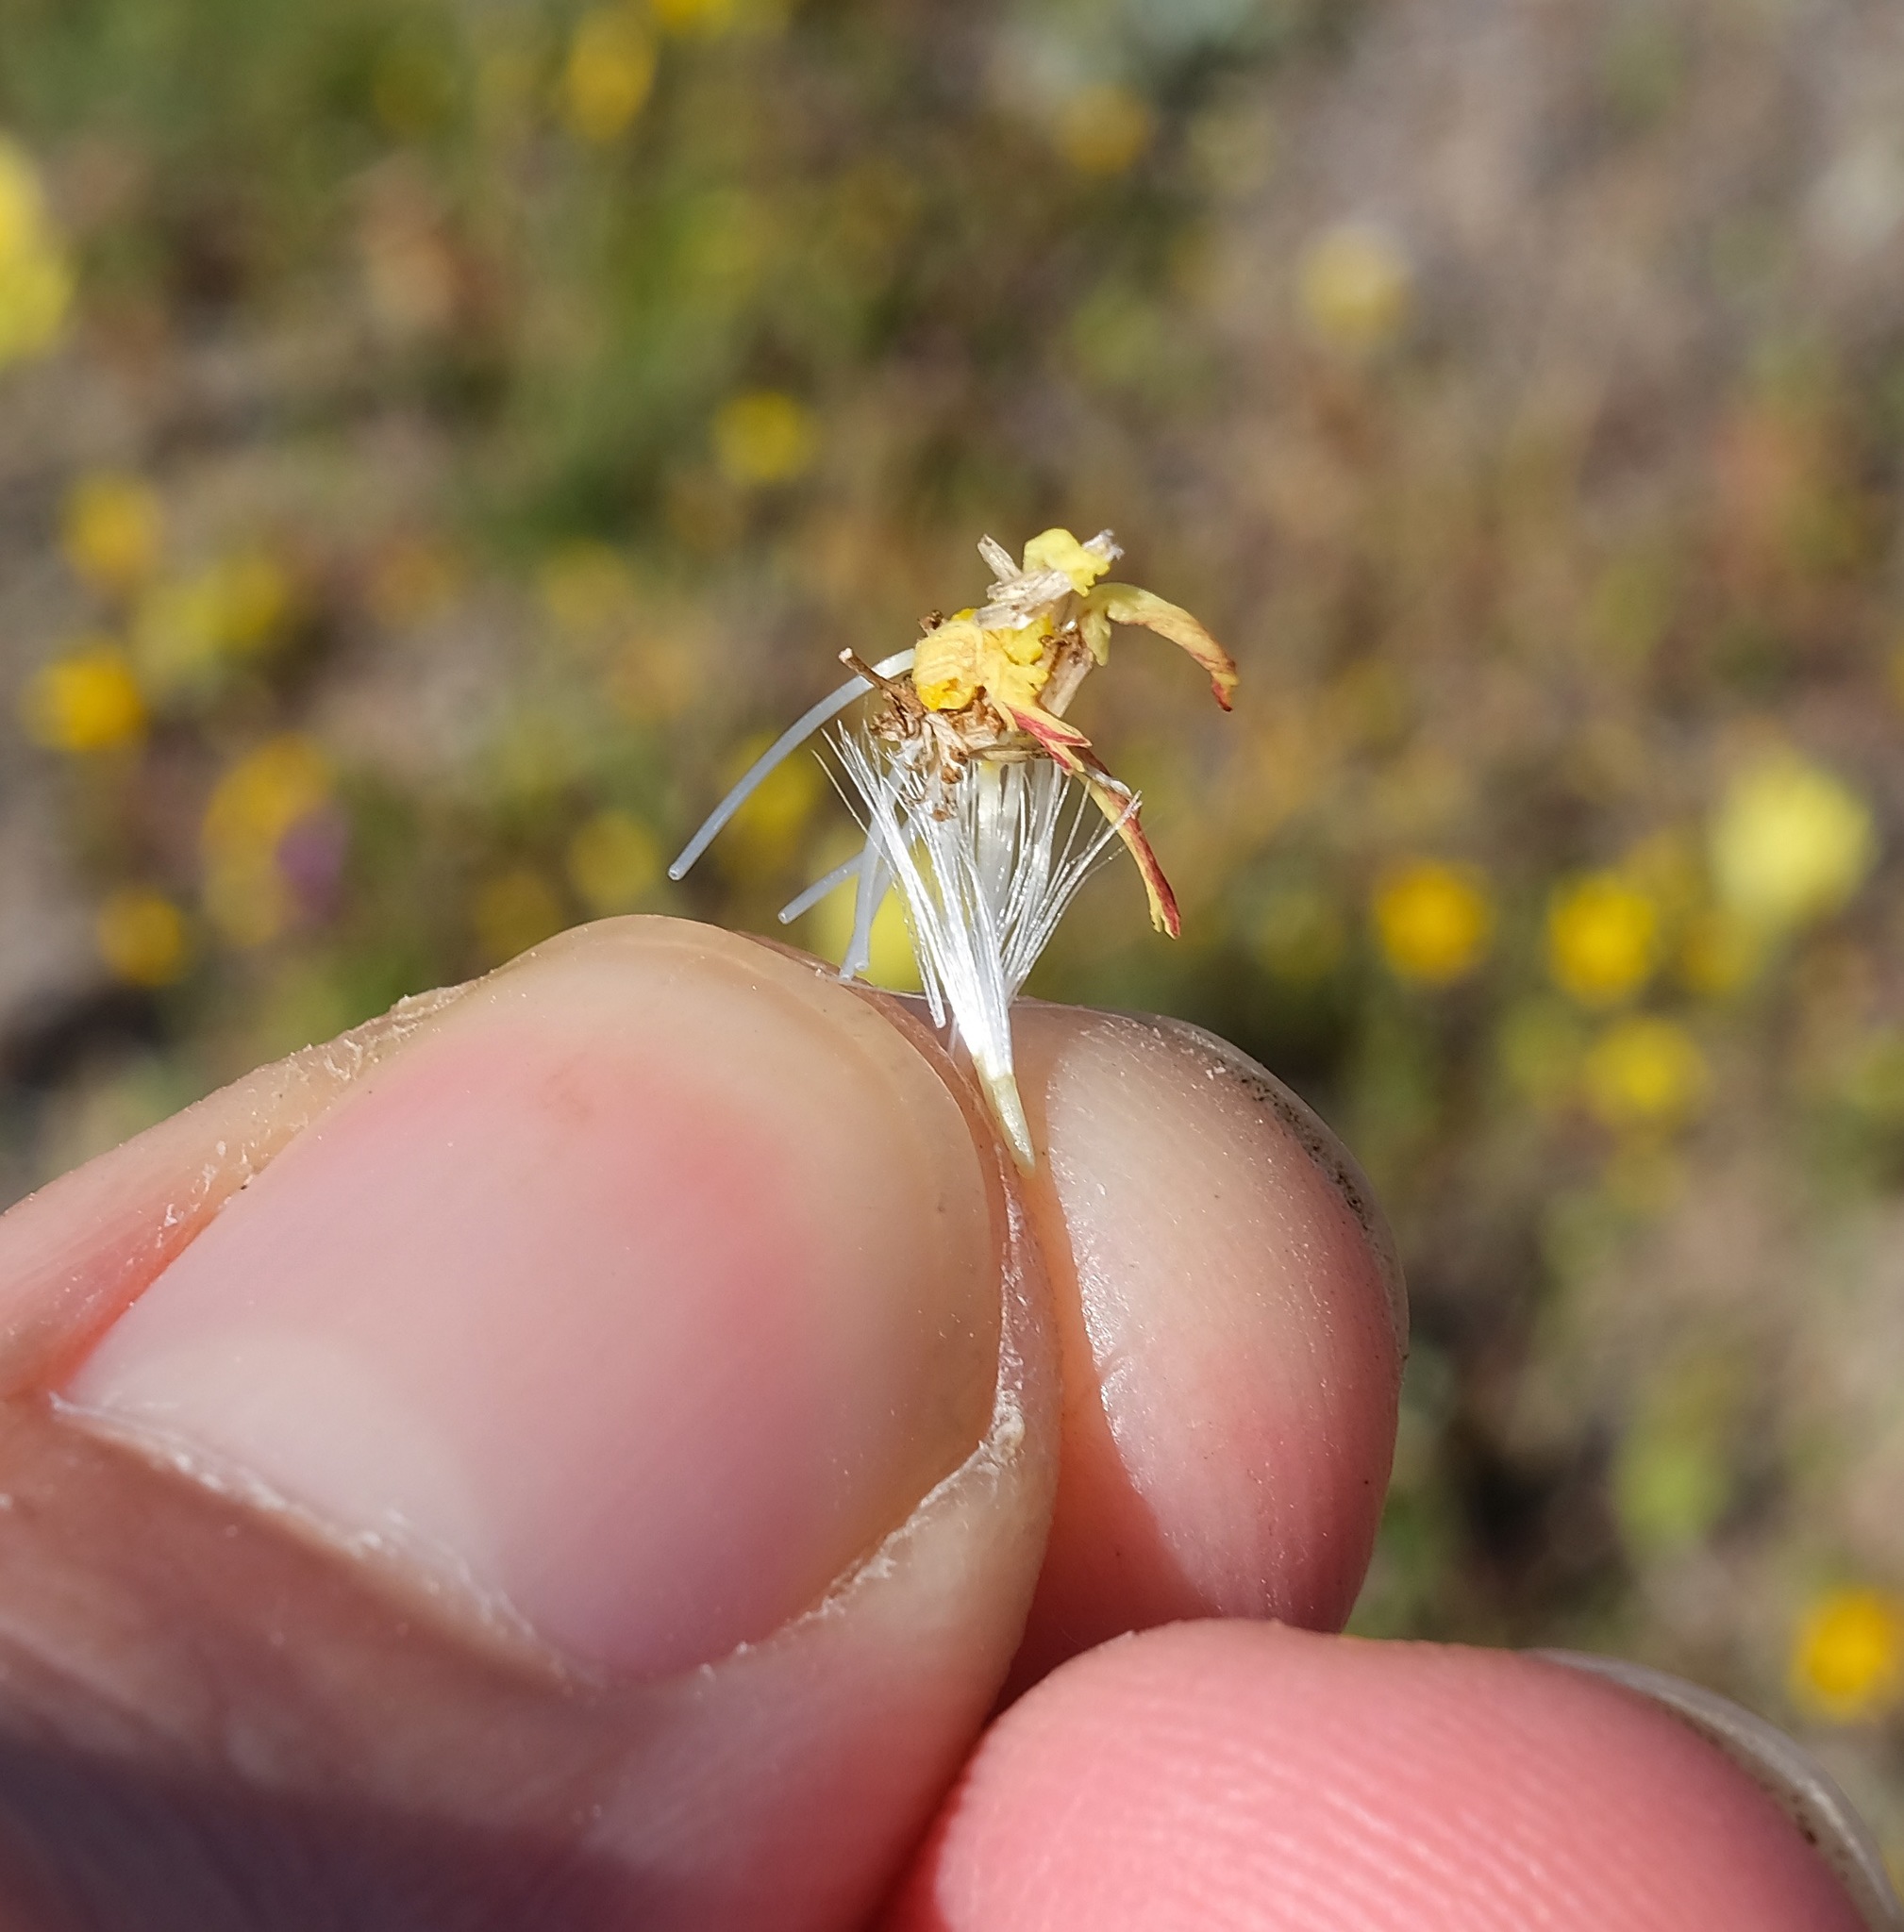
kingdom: Plantae
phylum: Tracheophyta
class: Magnoliopsida
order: Asterales
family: Asteraceae
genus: Malacothrix
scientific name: Malacothrix californica
